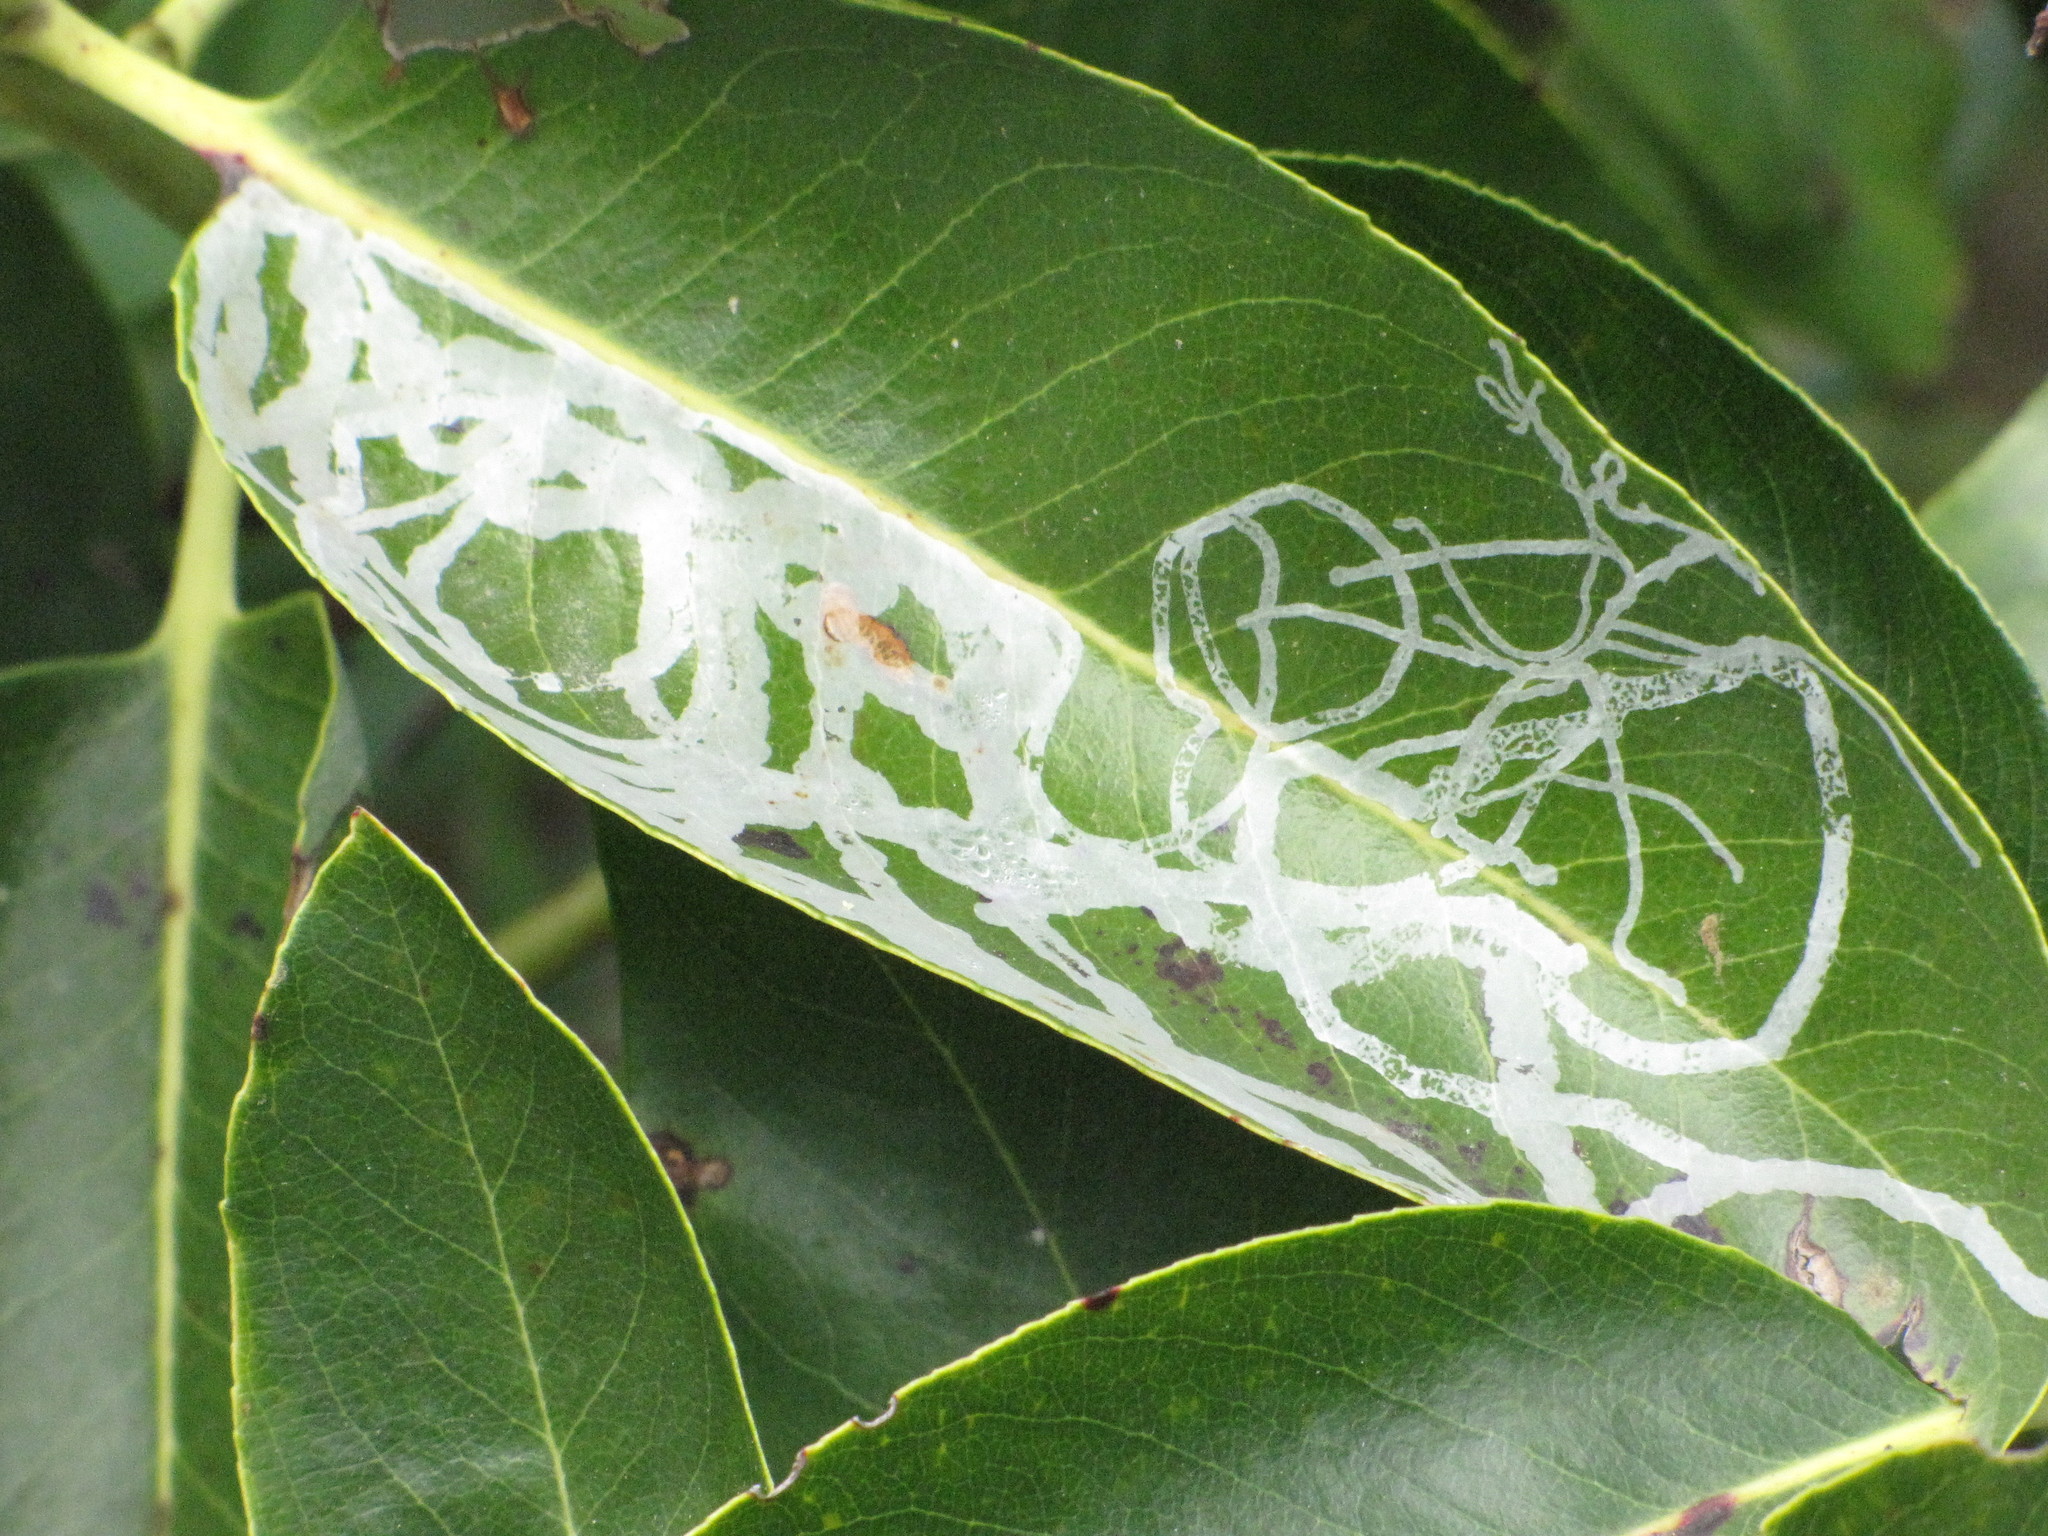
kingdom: Animalia
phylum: Arthropoda
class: Insecta
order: Lepidoptera
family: Gracillariidae
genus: Marmara
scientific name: Marmara arbutiella
